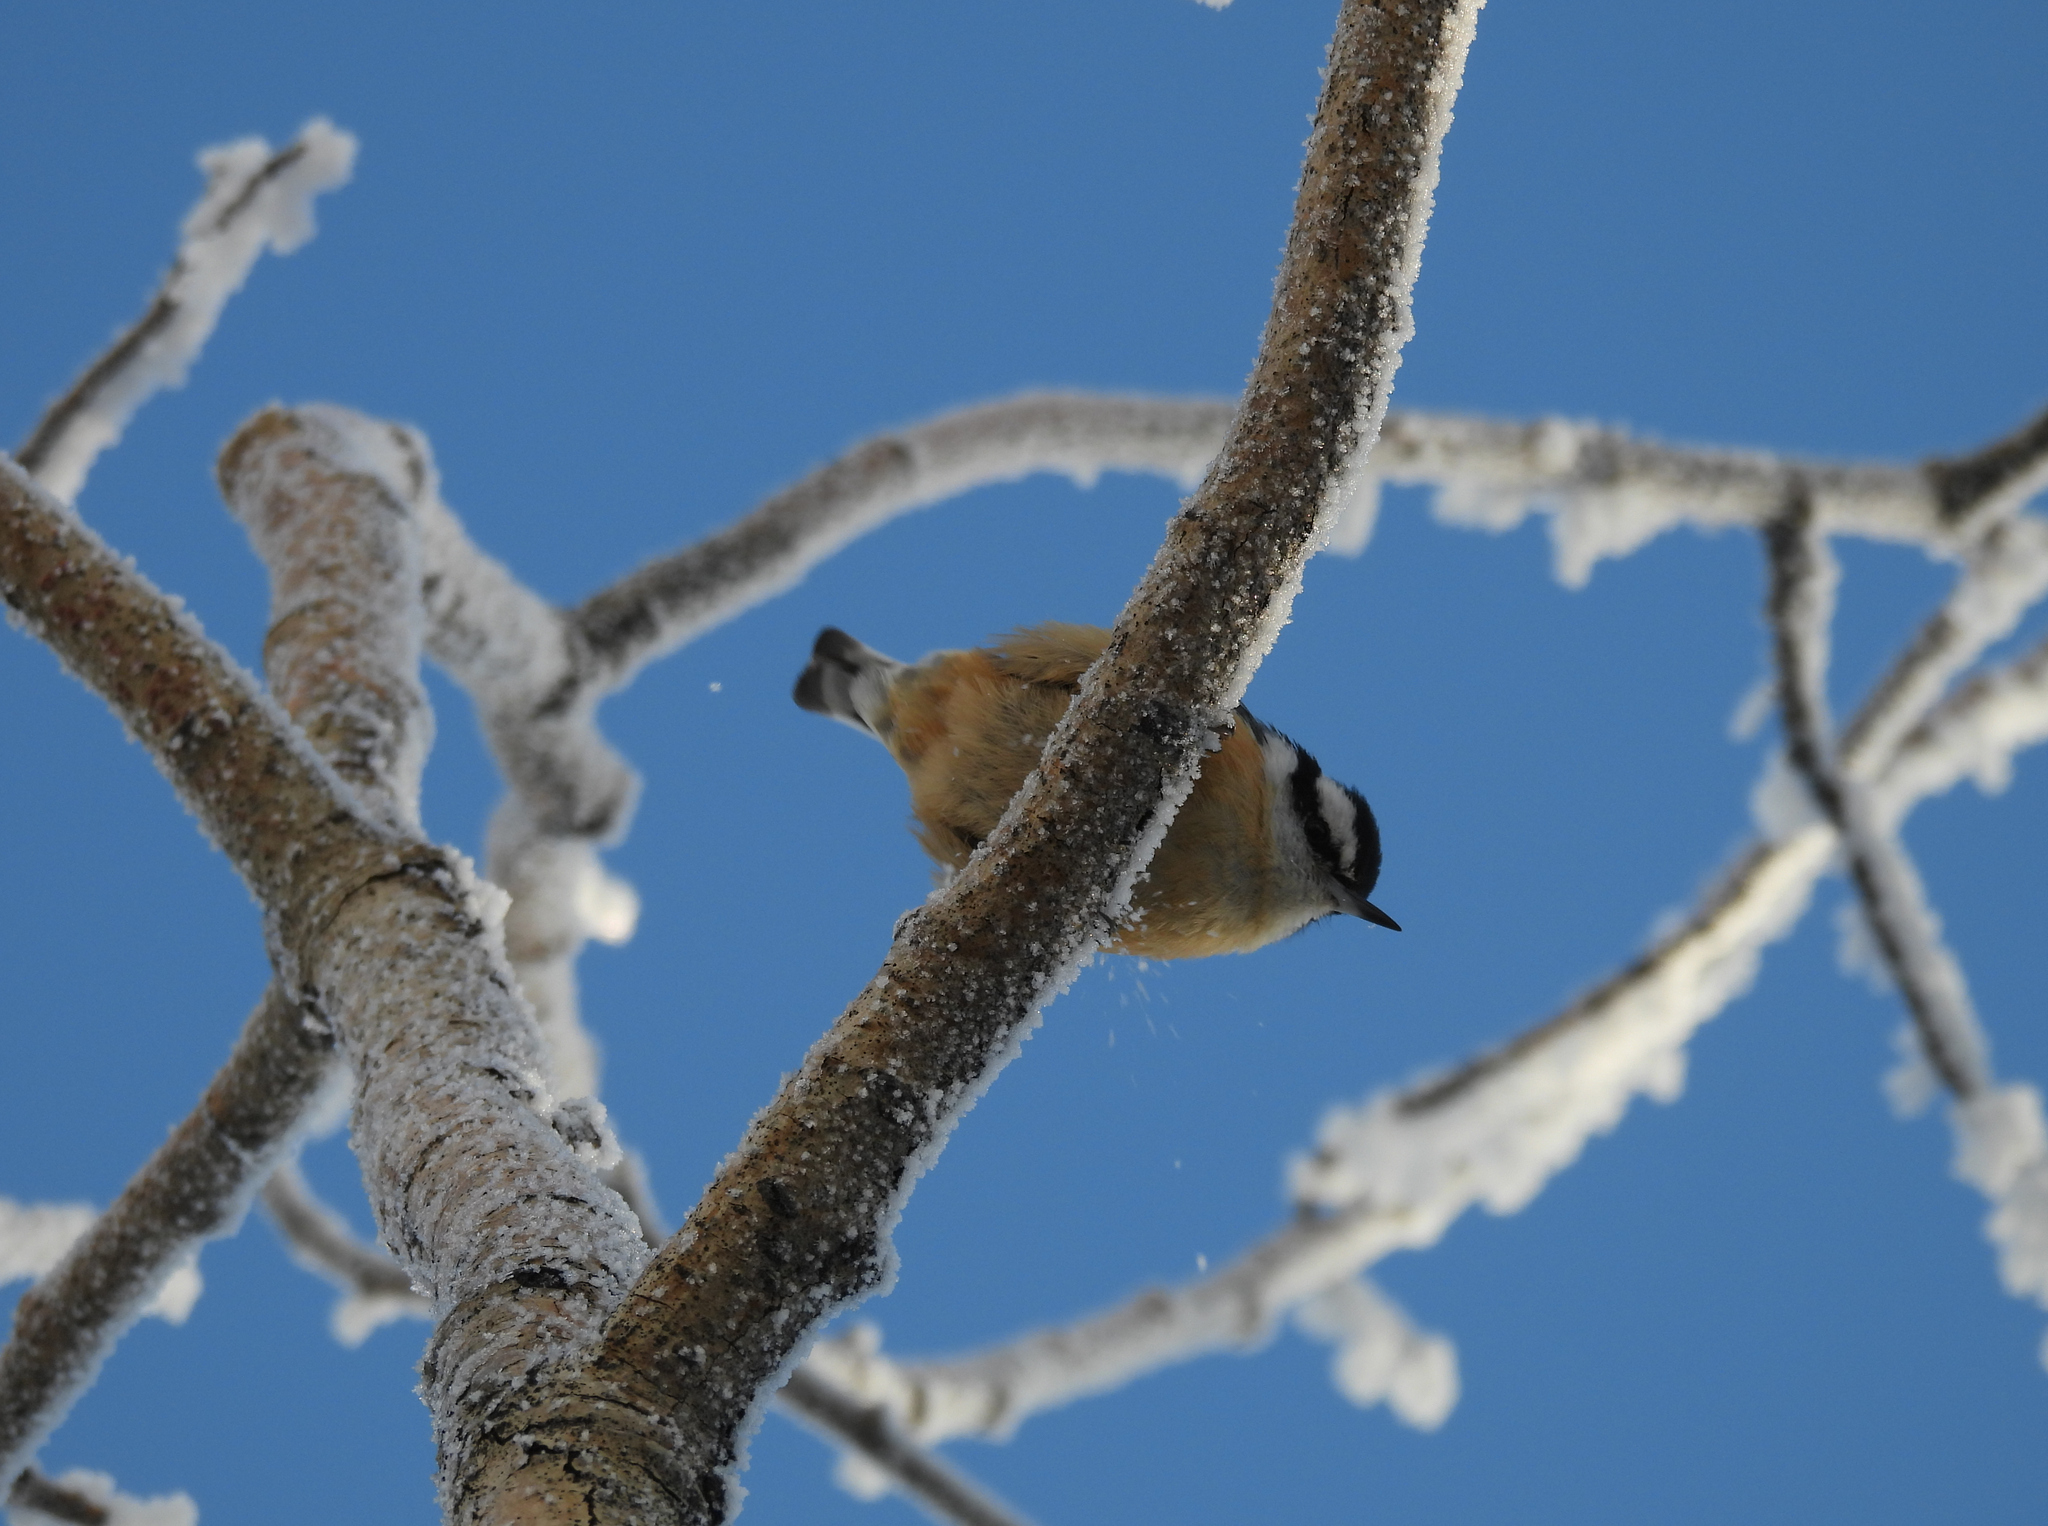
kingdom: Animalia
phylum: Chordata
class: Aves
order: Passeriformes
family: Sittidae
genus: Sitta
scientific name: Sitta canadensis
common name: Red-breasted nuthatch
